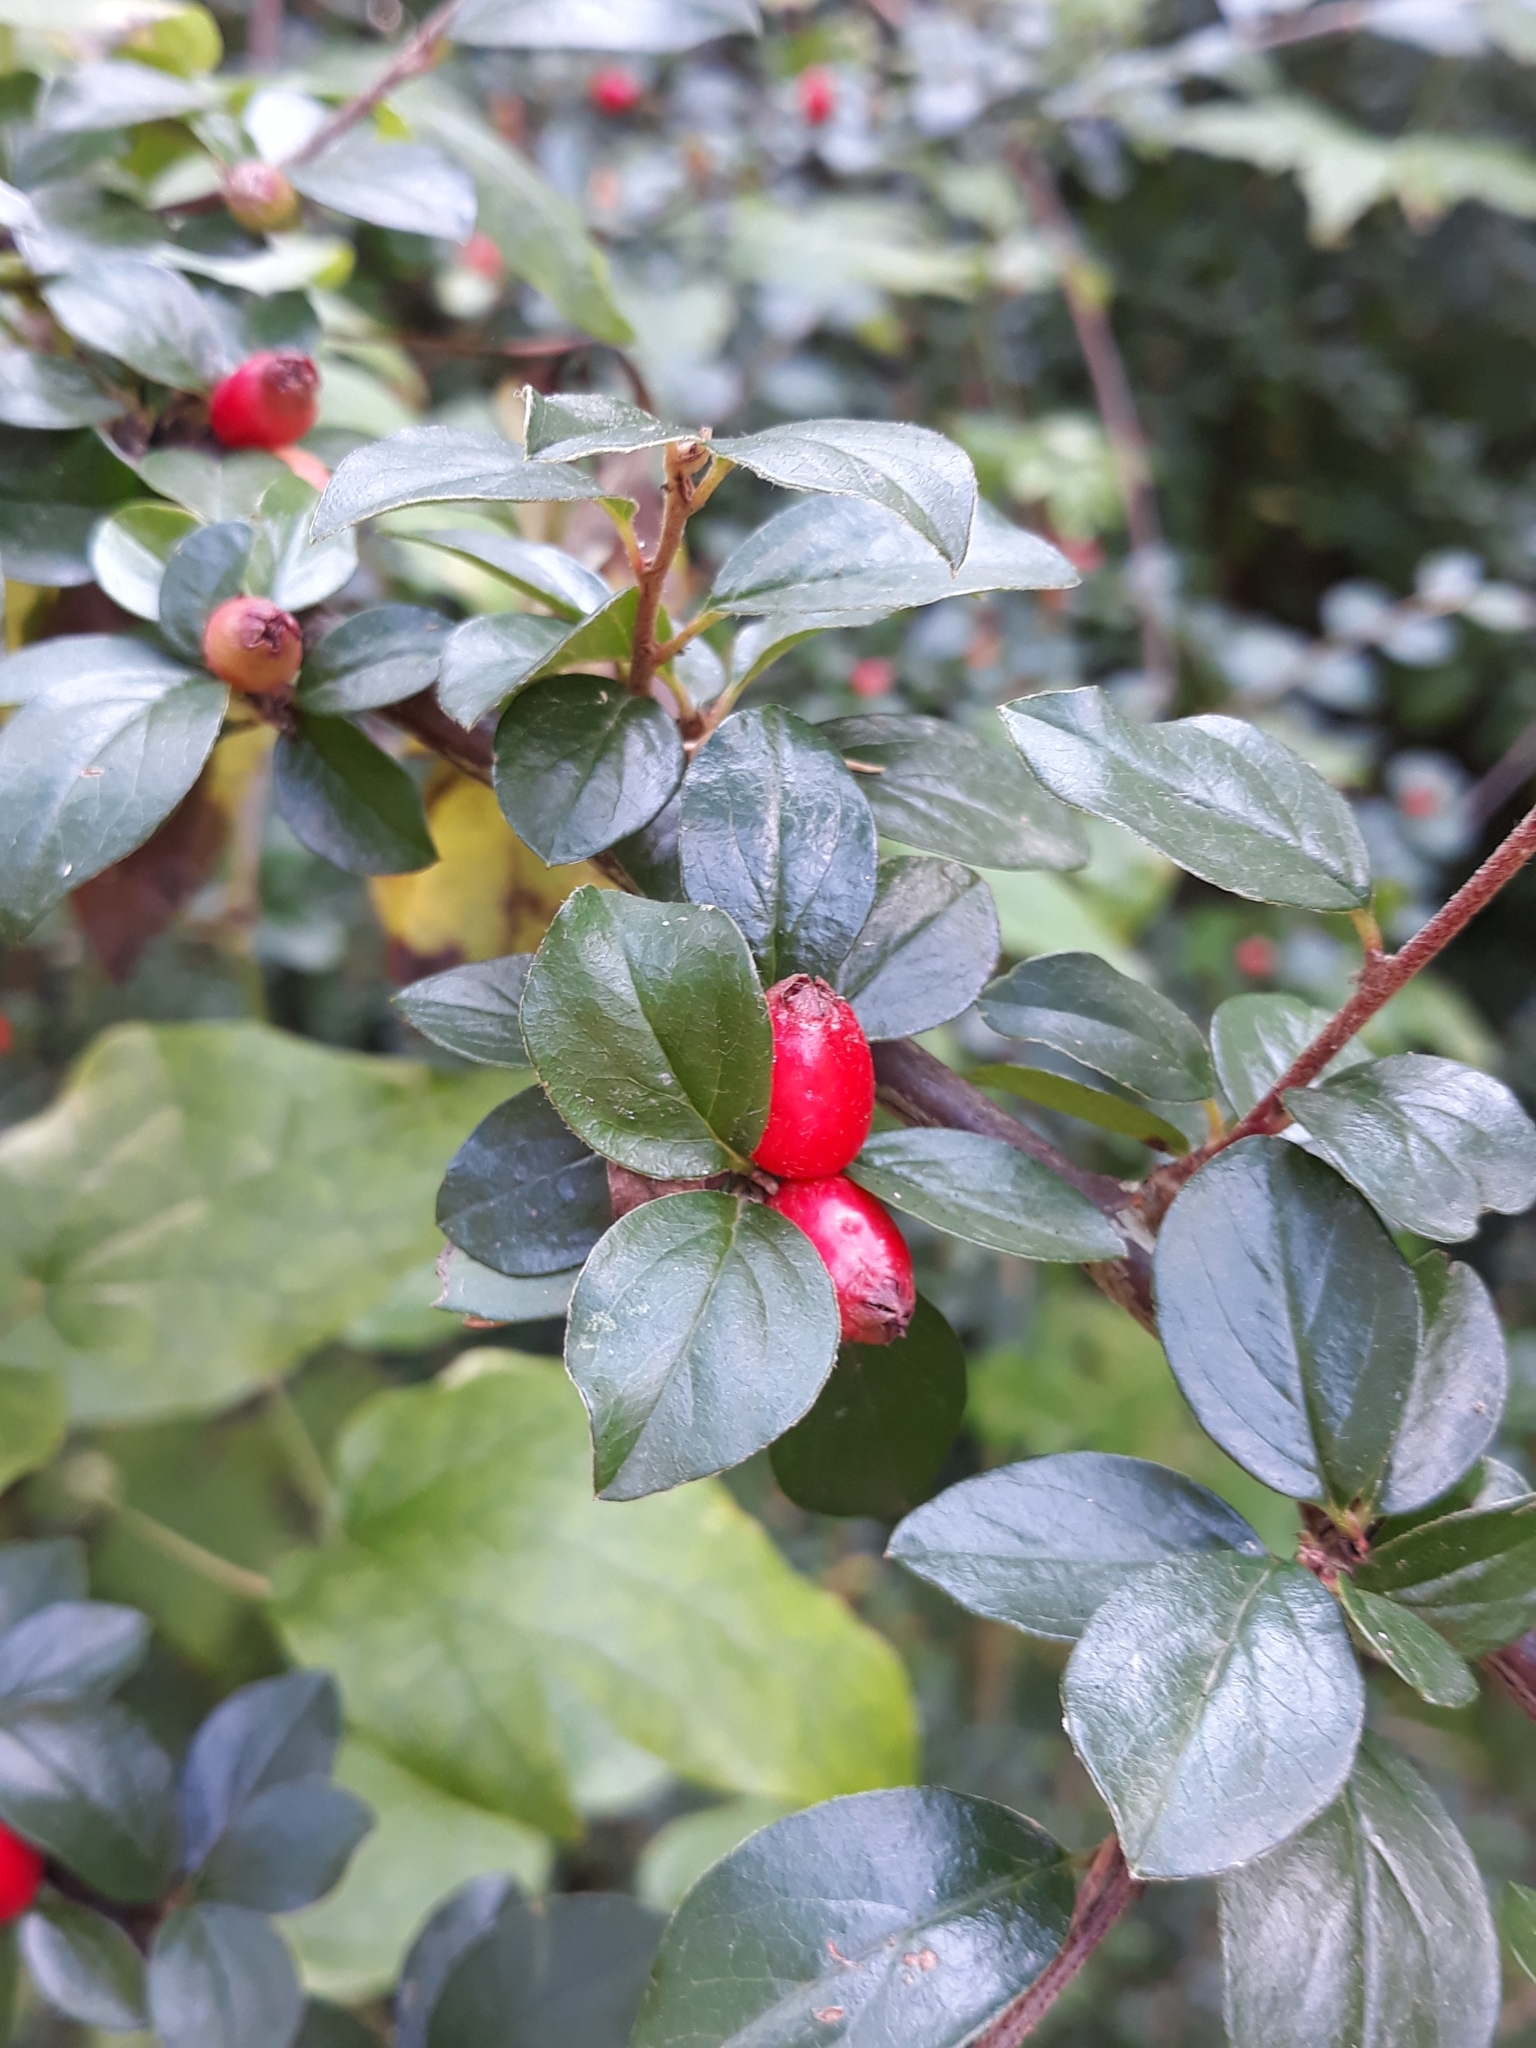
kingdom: Plantae
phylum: Tracheophyta
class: Magnoliopsida
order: Rosales
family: Rosaceae
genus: Cotoneaster
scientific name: Cotoneaster divaricatus
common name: Spreading cotoneaster
